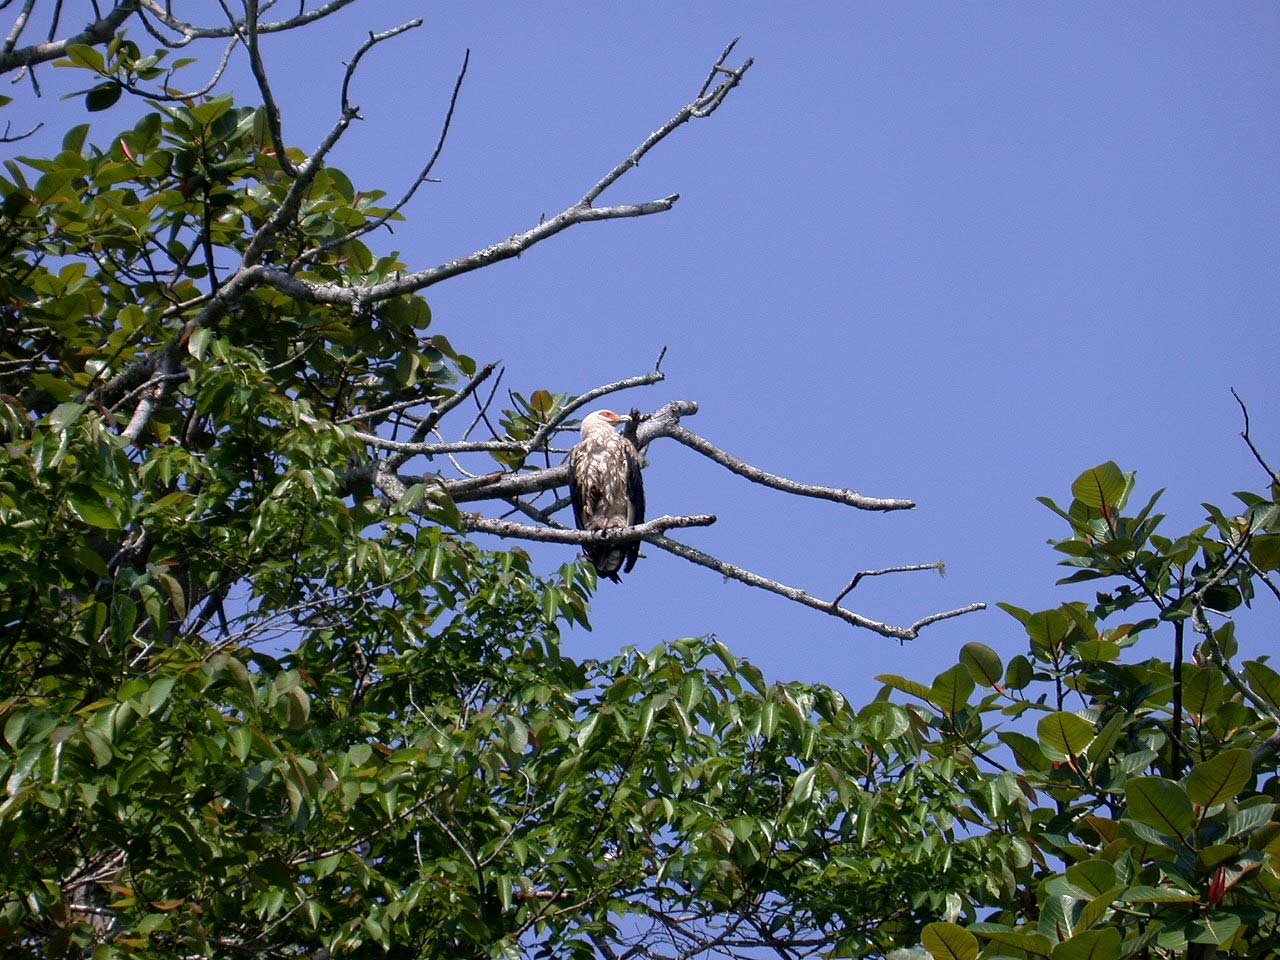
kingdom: Animalia
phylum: Chordata
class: Aves
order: Accipitriformes
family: Accipitridae
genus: Gypohierax
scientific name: Gypohierax angolensis
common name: Palm-nut vulture
